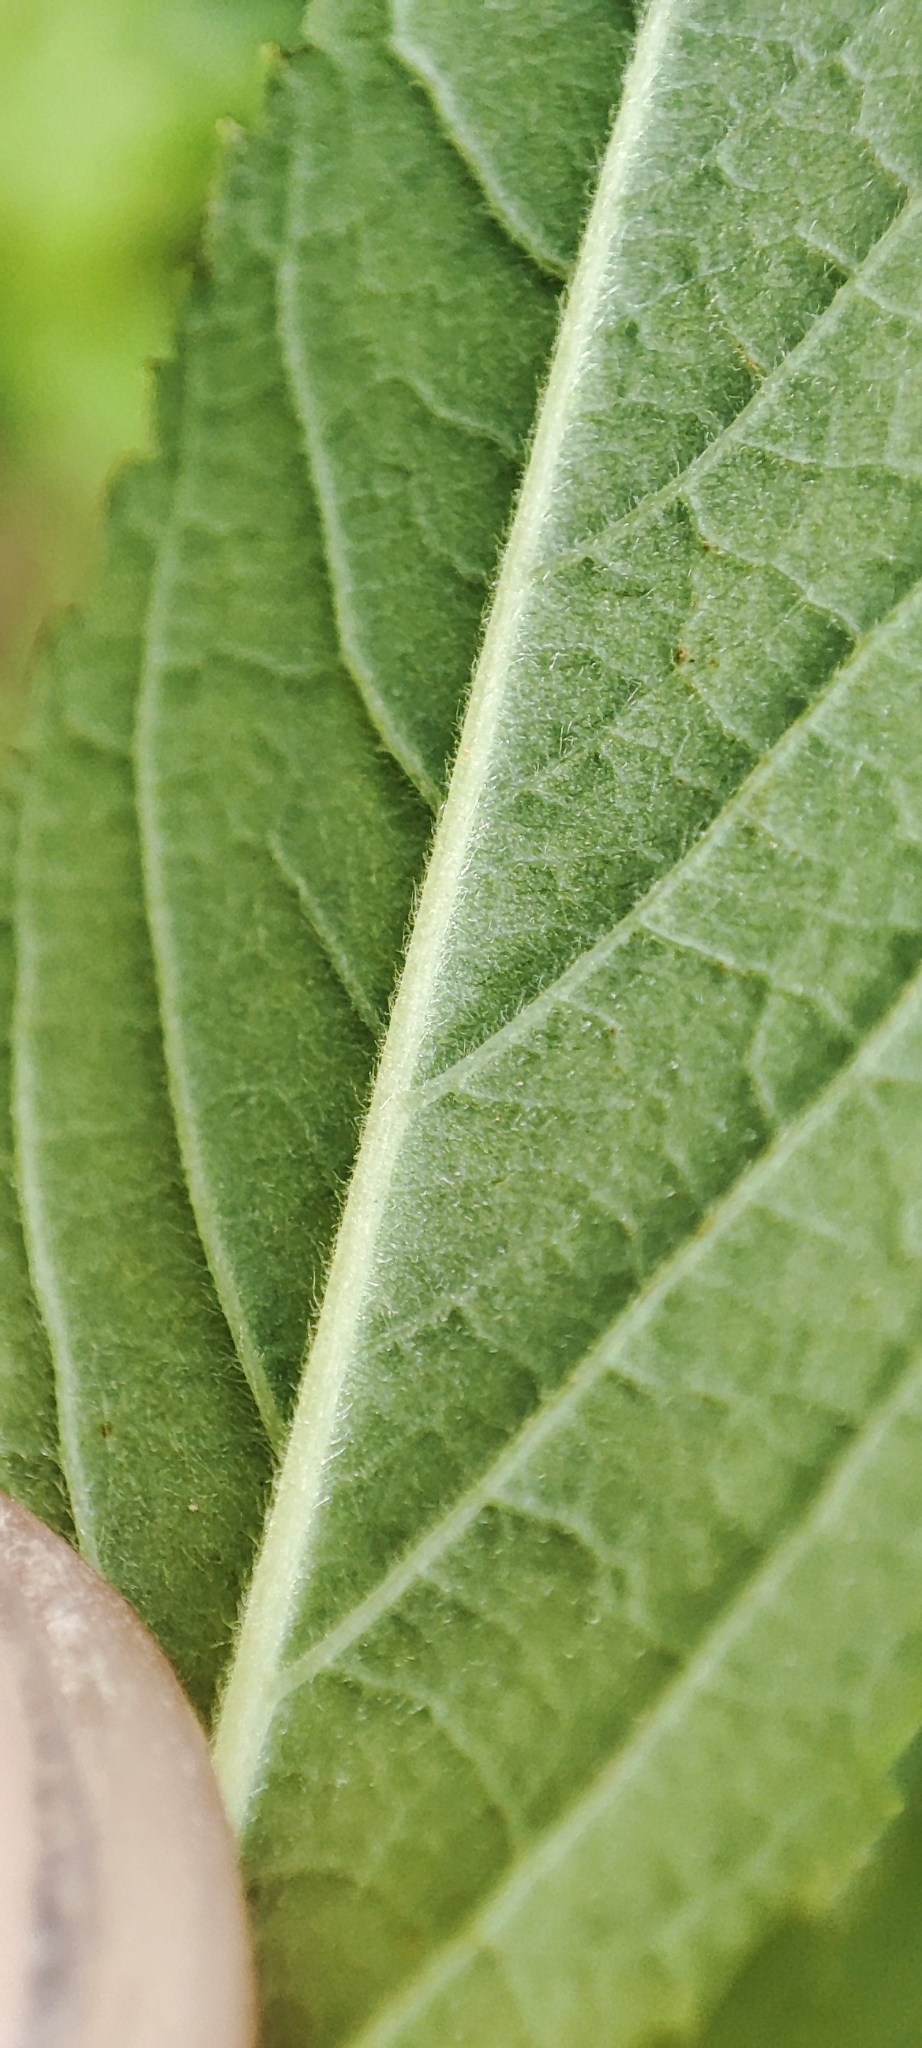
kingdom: Plantae
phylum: Tracheophyta
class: Magnoliopsida
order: Rosales
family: Rosaceae
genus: Rosa
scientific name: Rosa majalis
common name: Cinnamon rose
